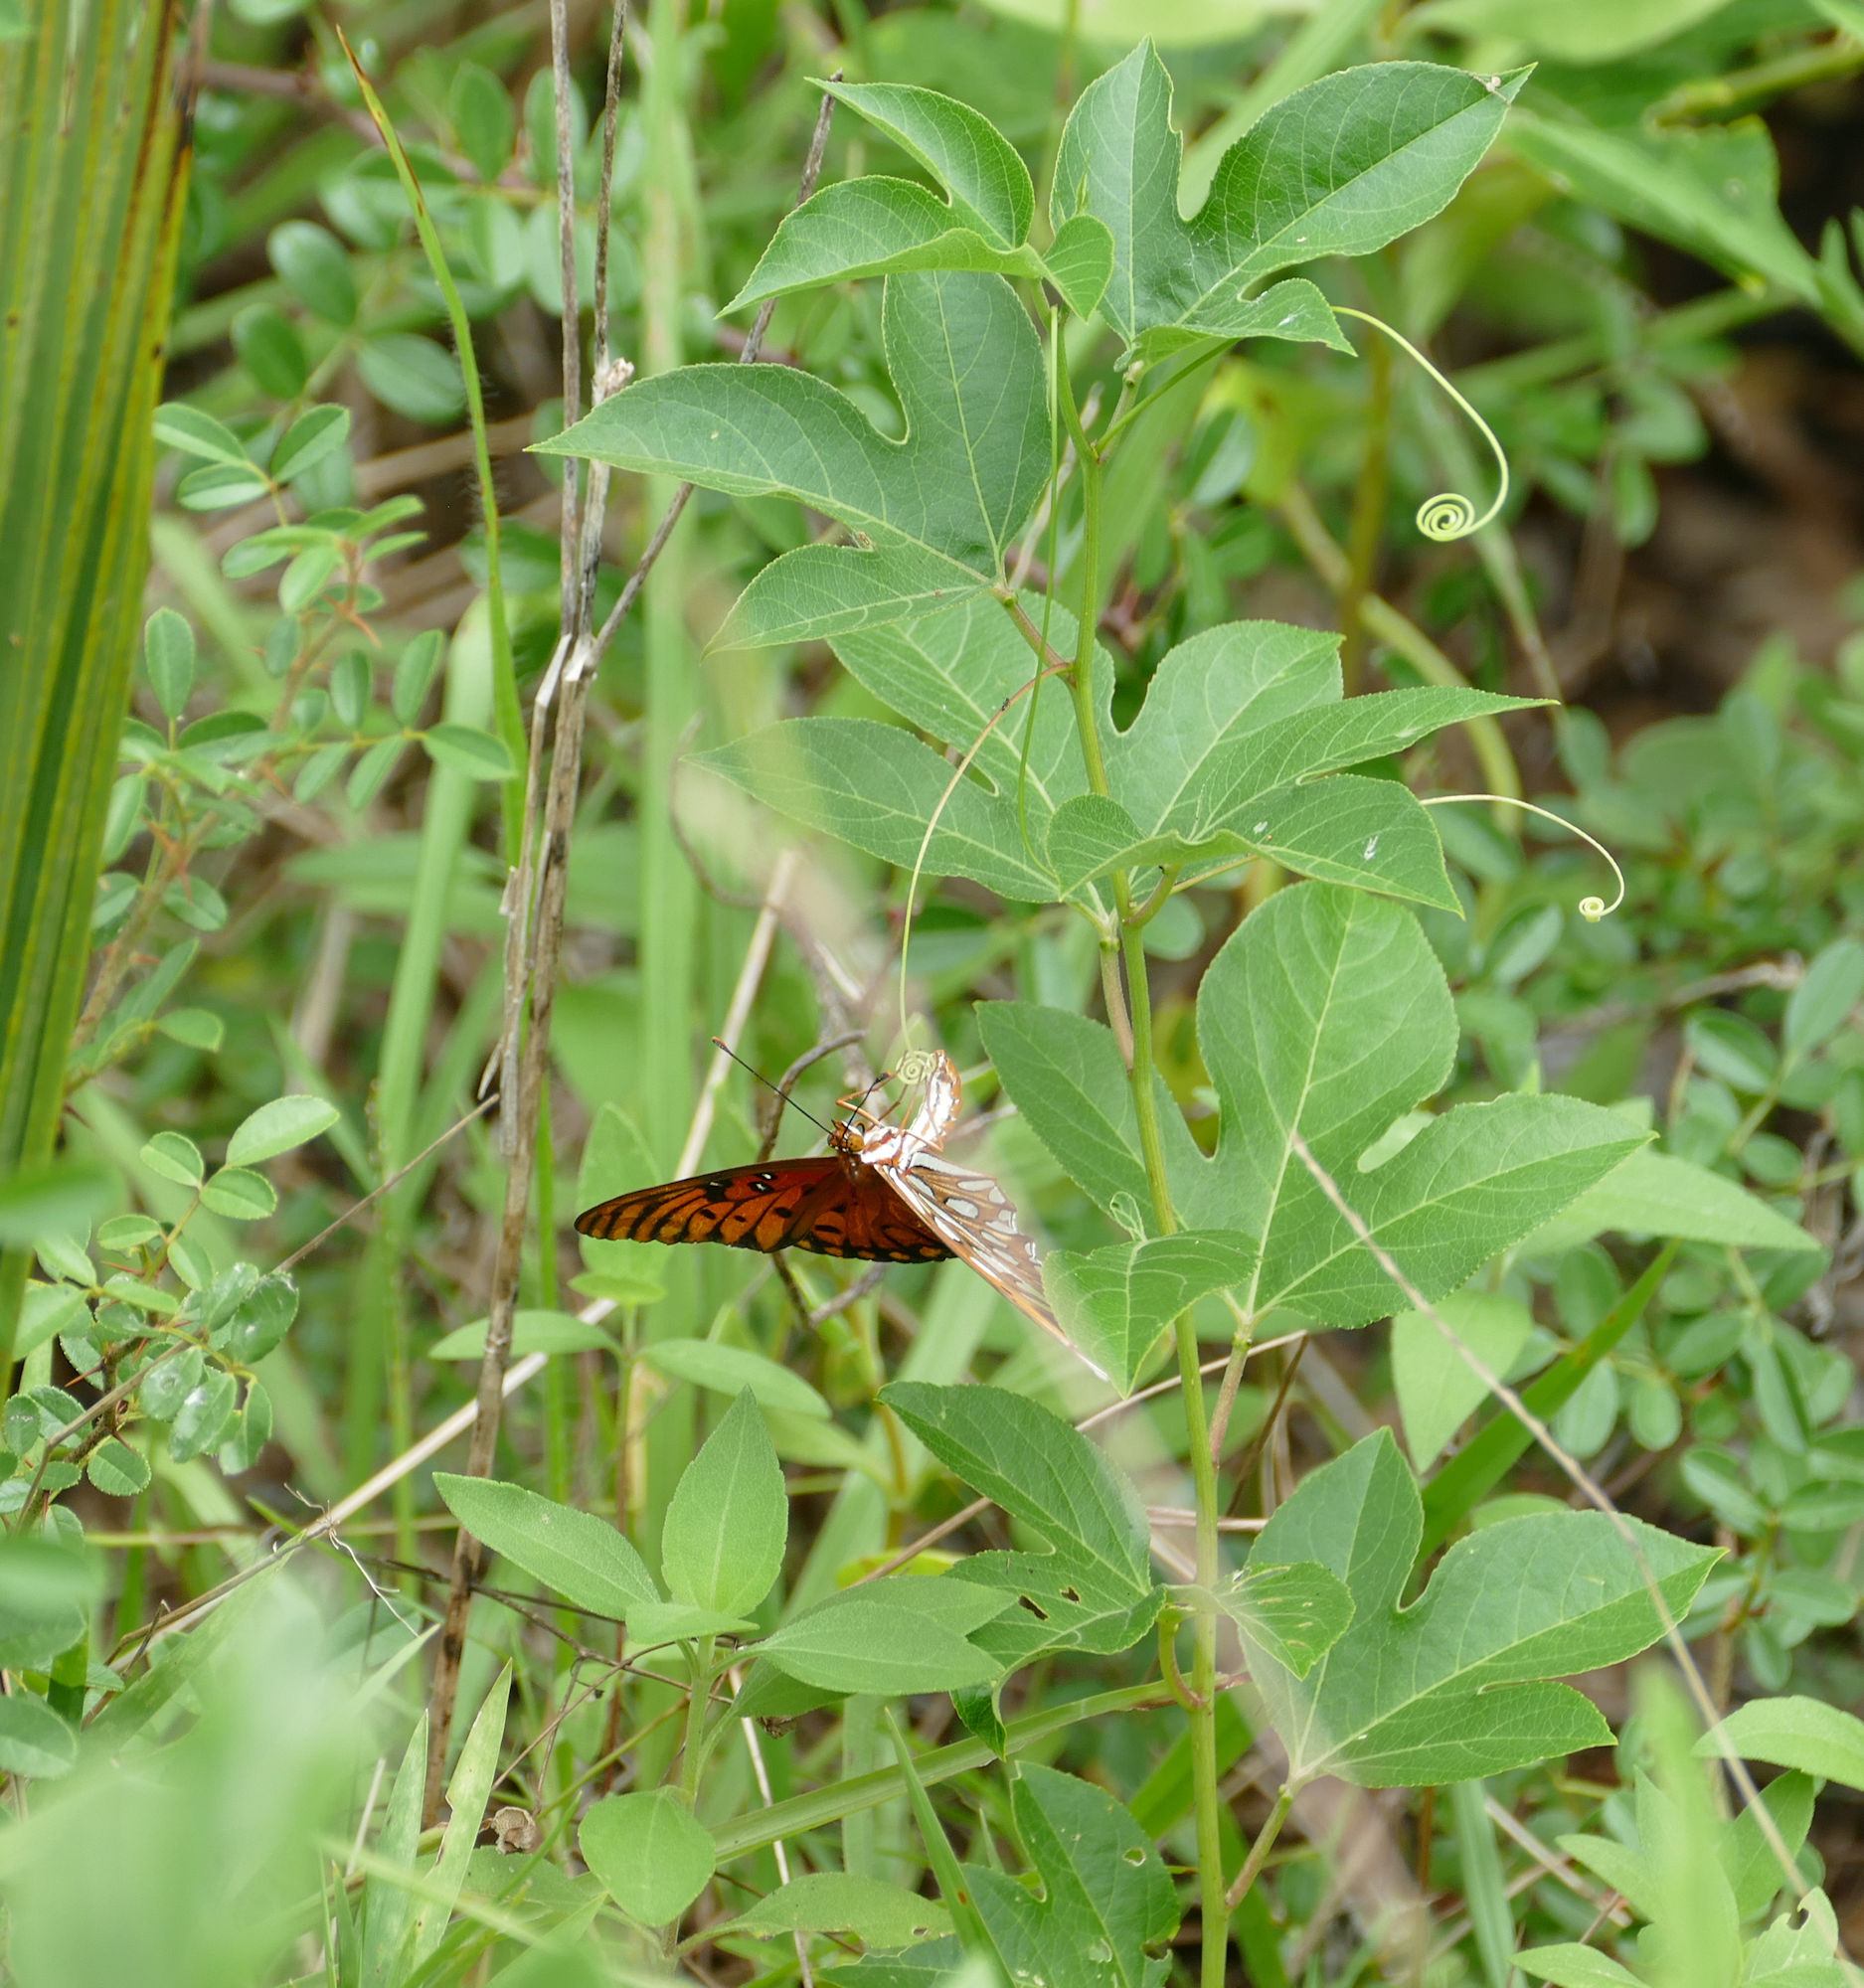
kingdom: Animalia
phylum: Arthropoda
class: Insecta
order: Lepidoptera
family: Nymphalidae
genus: Dione
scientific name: Dione vanillae
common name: Gulf fritillary
